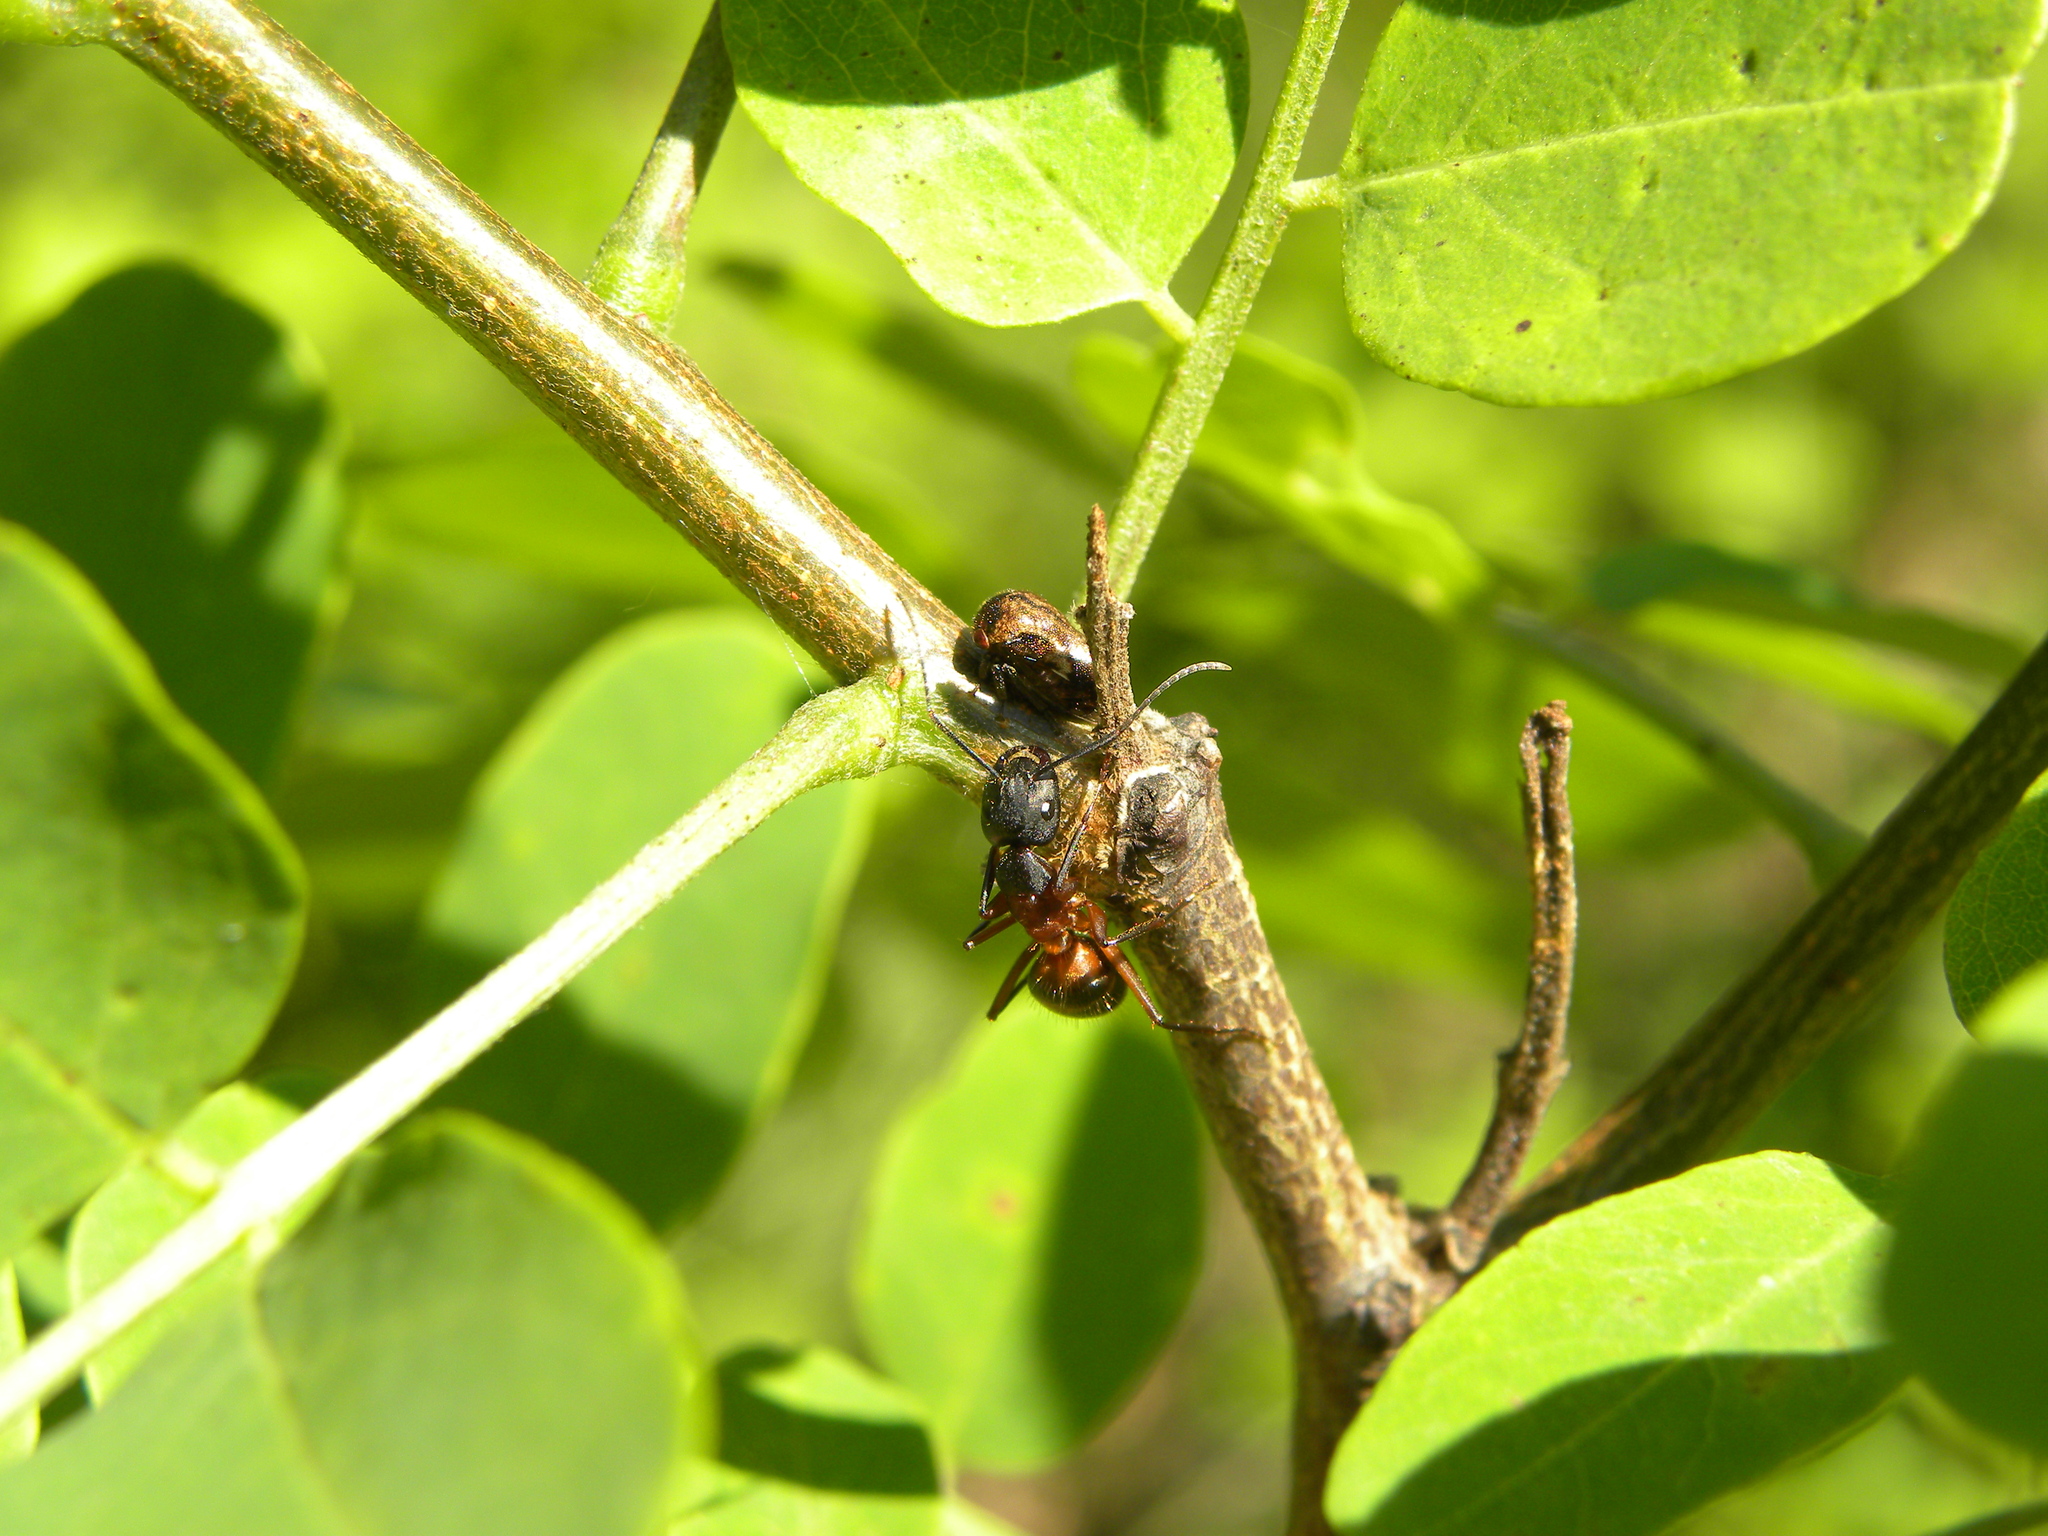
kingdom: Animalia
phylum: Arthropoda
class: Insecta
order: Hemiptera
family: Membracidae
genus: Vanduzea
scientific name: Vanduzea arquata
